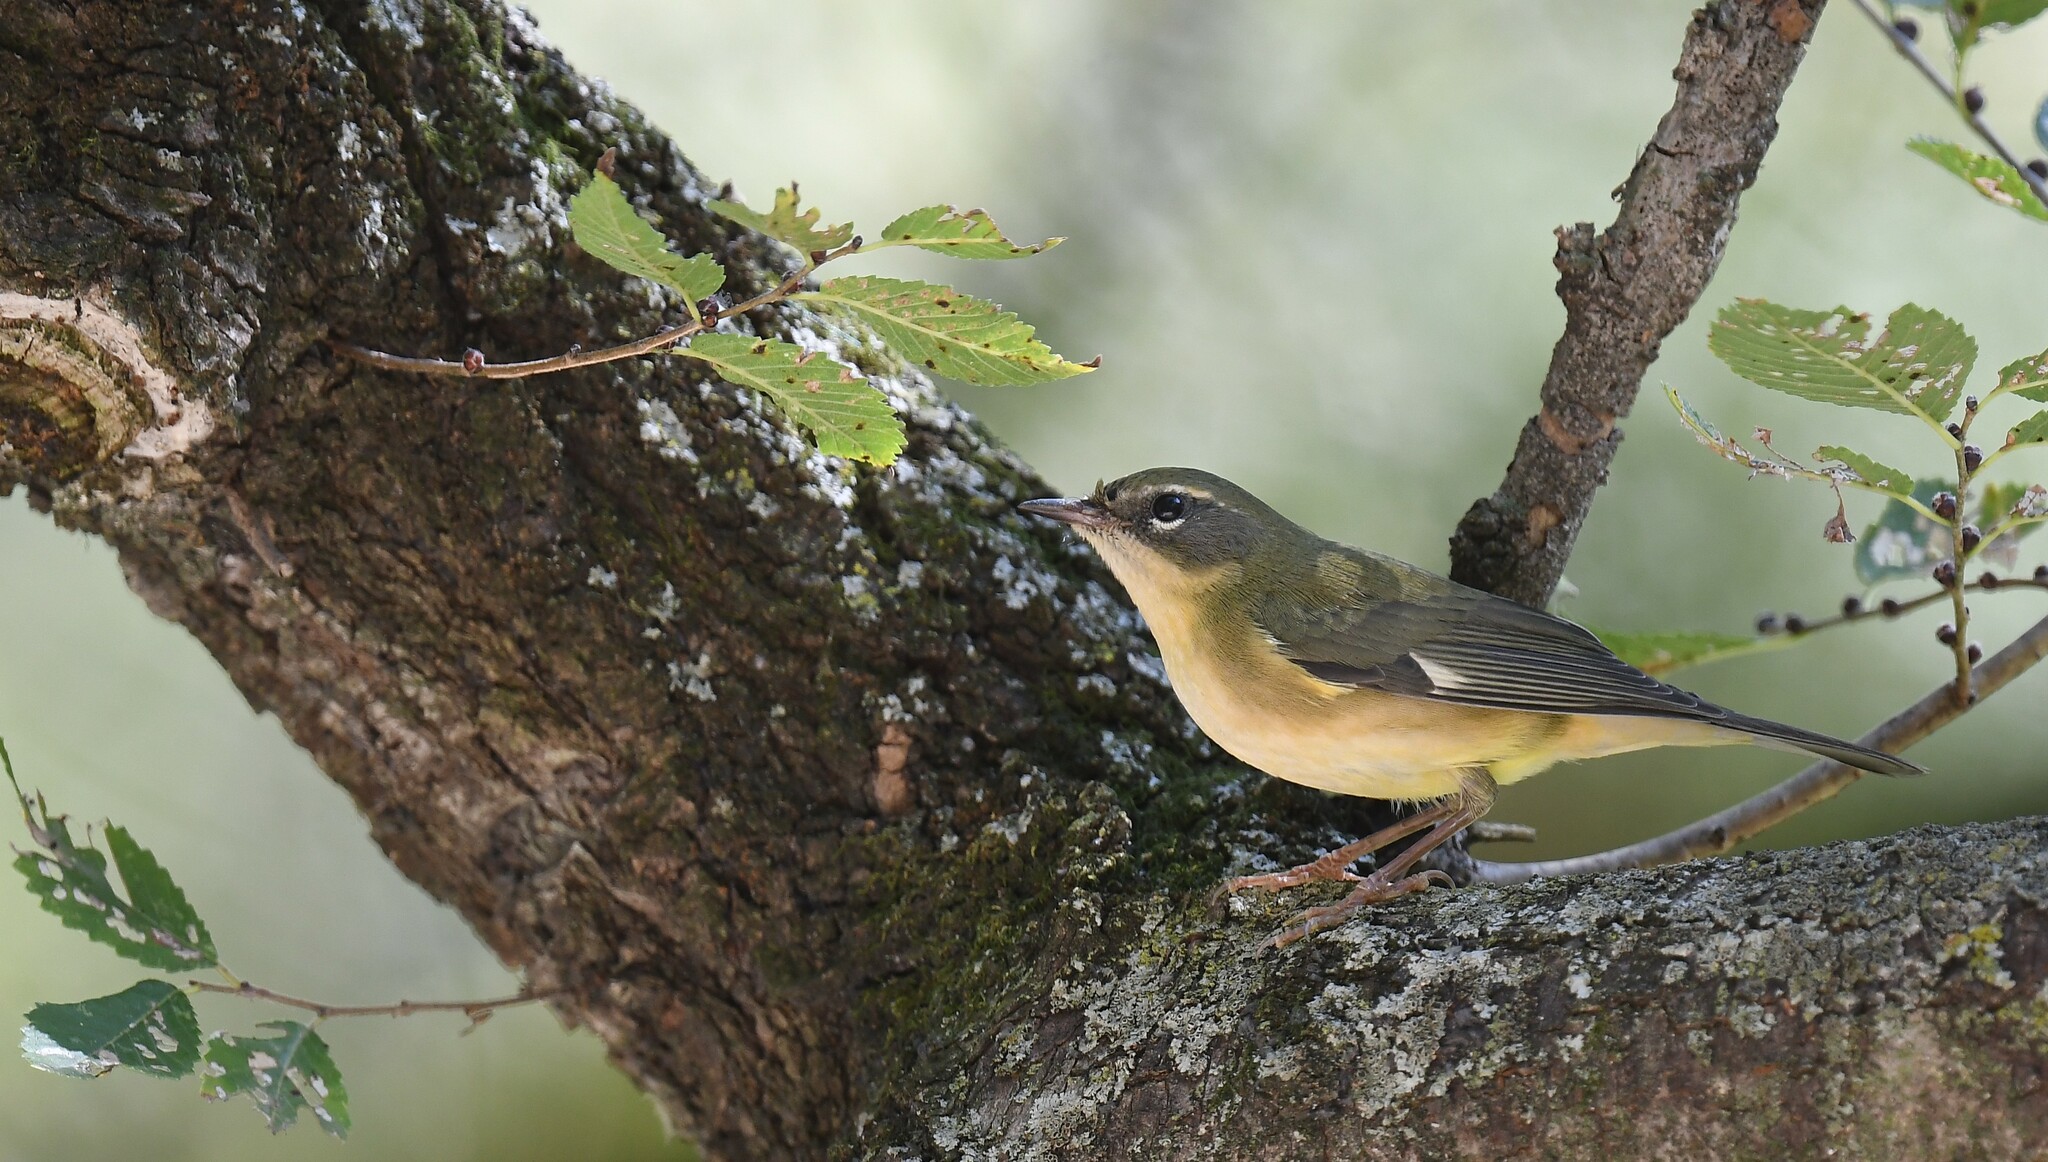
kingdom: Animalia
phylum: Chordata
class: Aves
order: Passeriformes
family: Parulidae
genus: Setophaga
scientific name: Setophaga caerulescens
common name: Black-throated blue warbler
